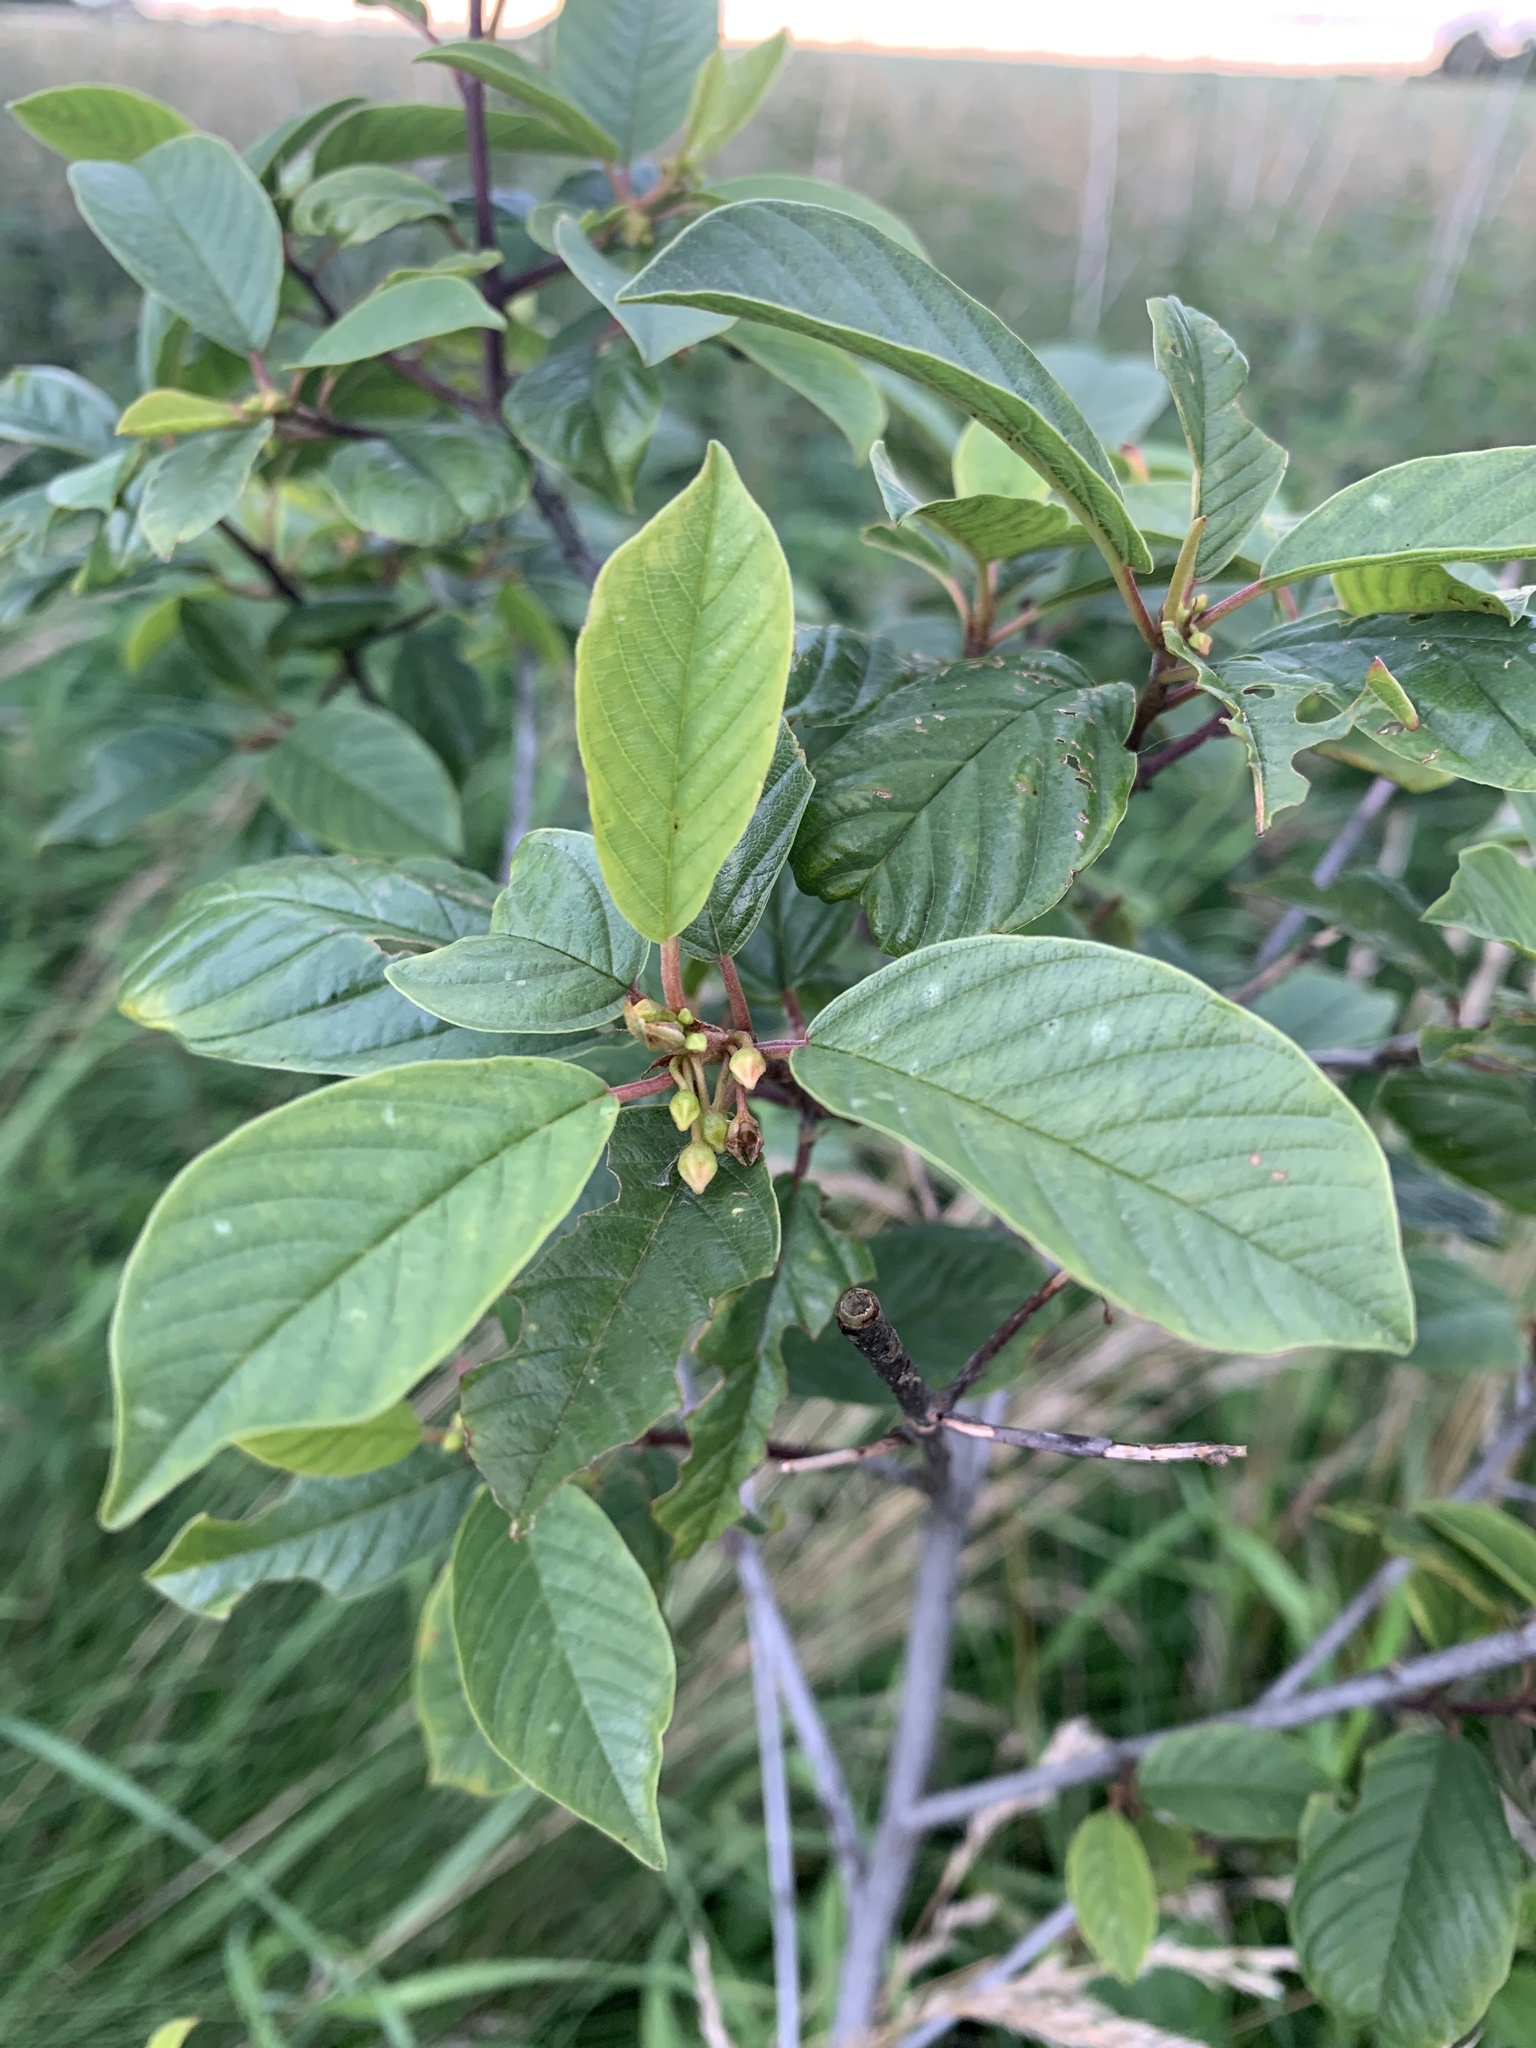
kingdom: Plantae
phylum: Tracheophyta
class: Magnoliopsida
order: Rosales
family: Rhamnaceae
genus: Frangula
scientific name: Frangula alnus
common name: Alder buckthorn
